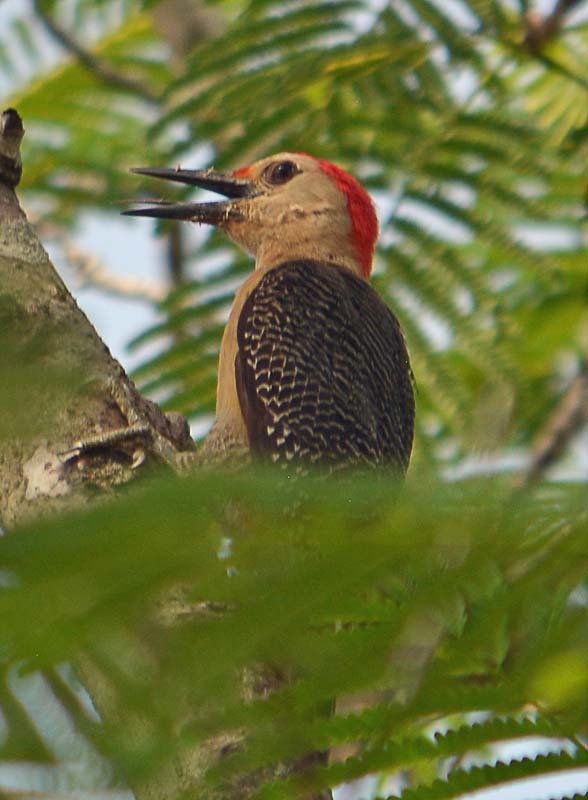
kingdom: Animalia
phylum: Chordata
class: Aves
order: Piciformes
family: Picidae
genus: Melanerpes
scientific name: Melanerpes aurifrons
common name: Golden-fronted woodpecker
